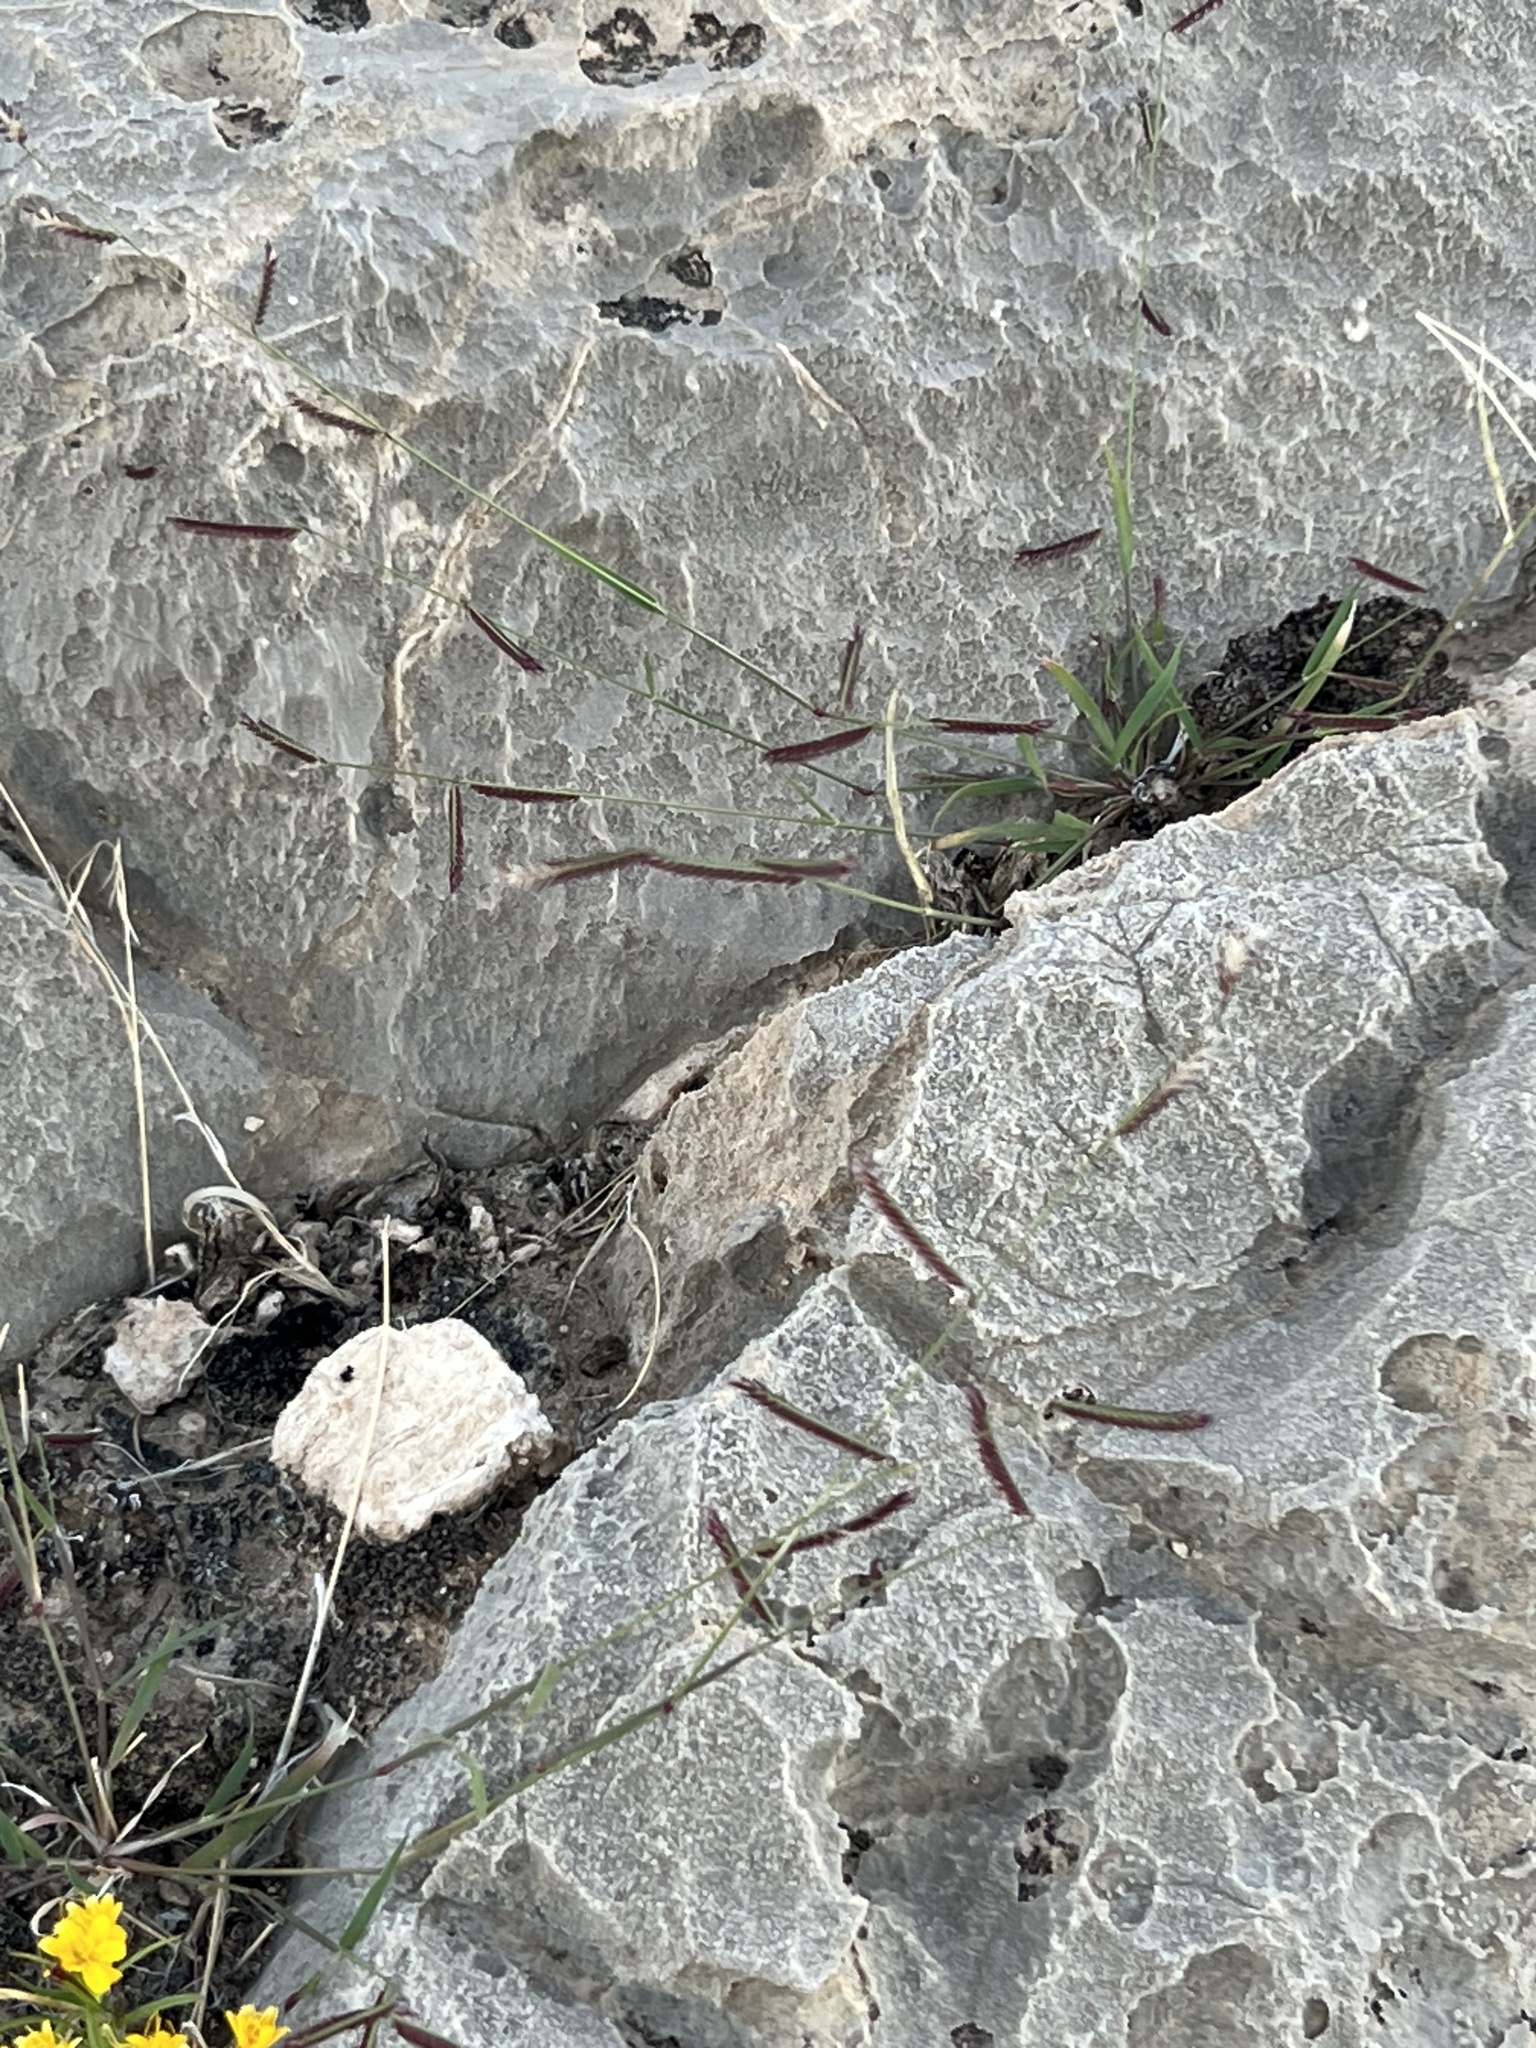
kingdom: Plantae
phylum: Tracheophyta
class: Liliopsida
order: Poales
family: Poaceae
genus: Bouteloua
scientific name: Bouteloua trifida
